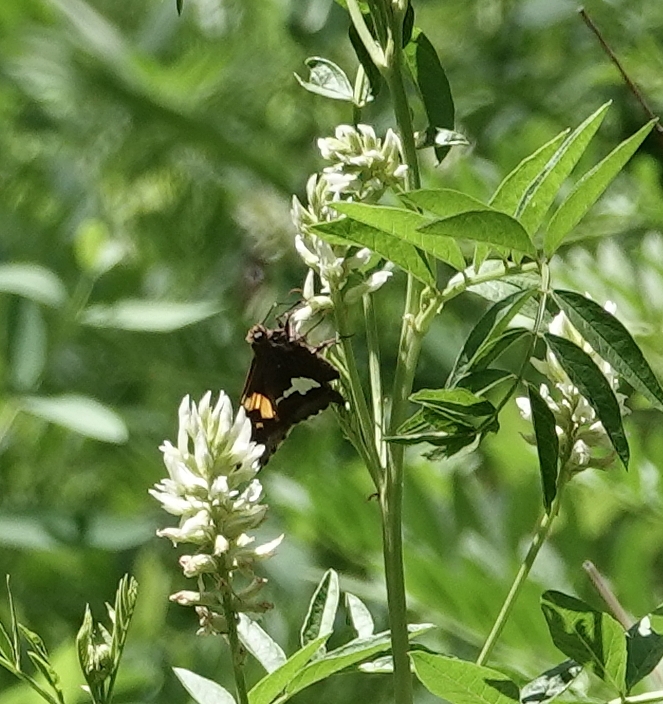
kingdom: Animalia
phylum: Arthropoda
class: Insecta
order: Lepidoptera
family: Hesperiidae
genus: Epargyreus
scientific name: Epargyreus clarus
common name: Silver-spotted skipper
